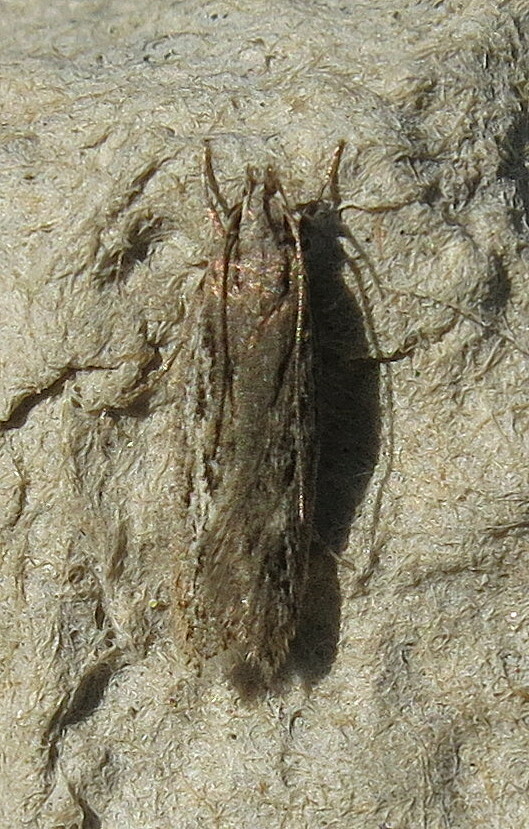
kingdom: Animalia
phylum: Arthropoda
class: Insecta
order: Lepidoptera
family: Gelechiidae
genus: Gelechia
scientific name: Gelechia senticetella
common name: Cypress groundling
